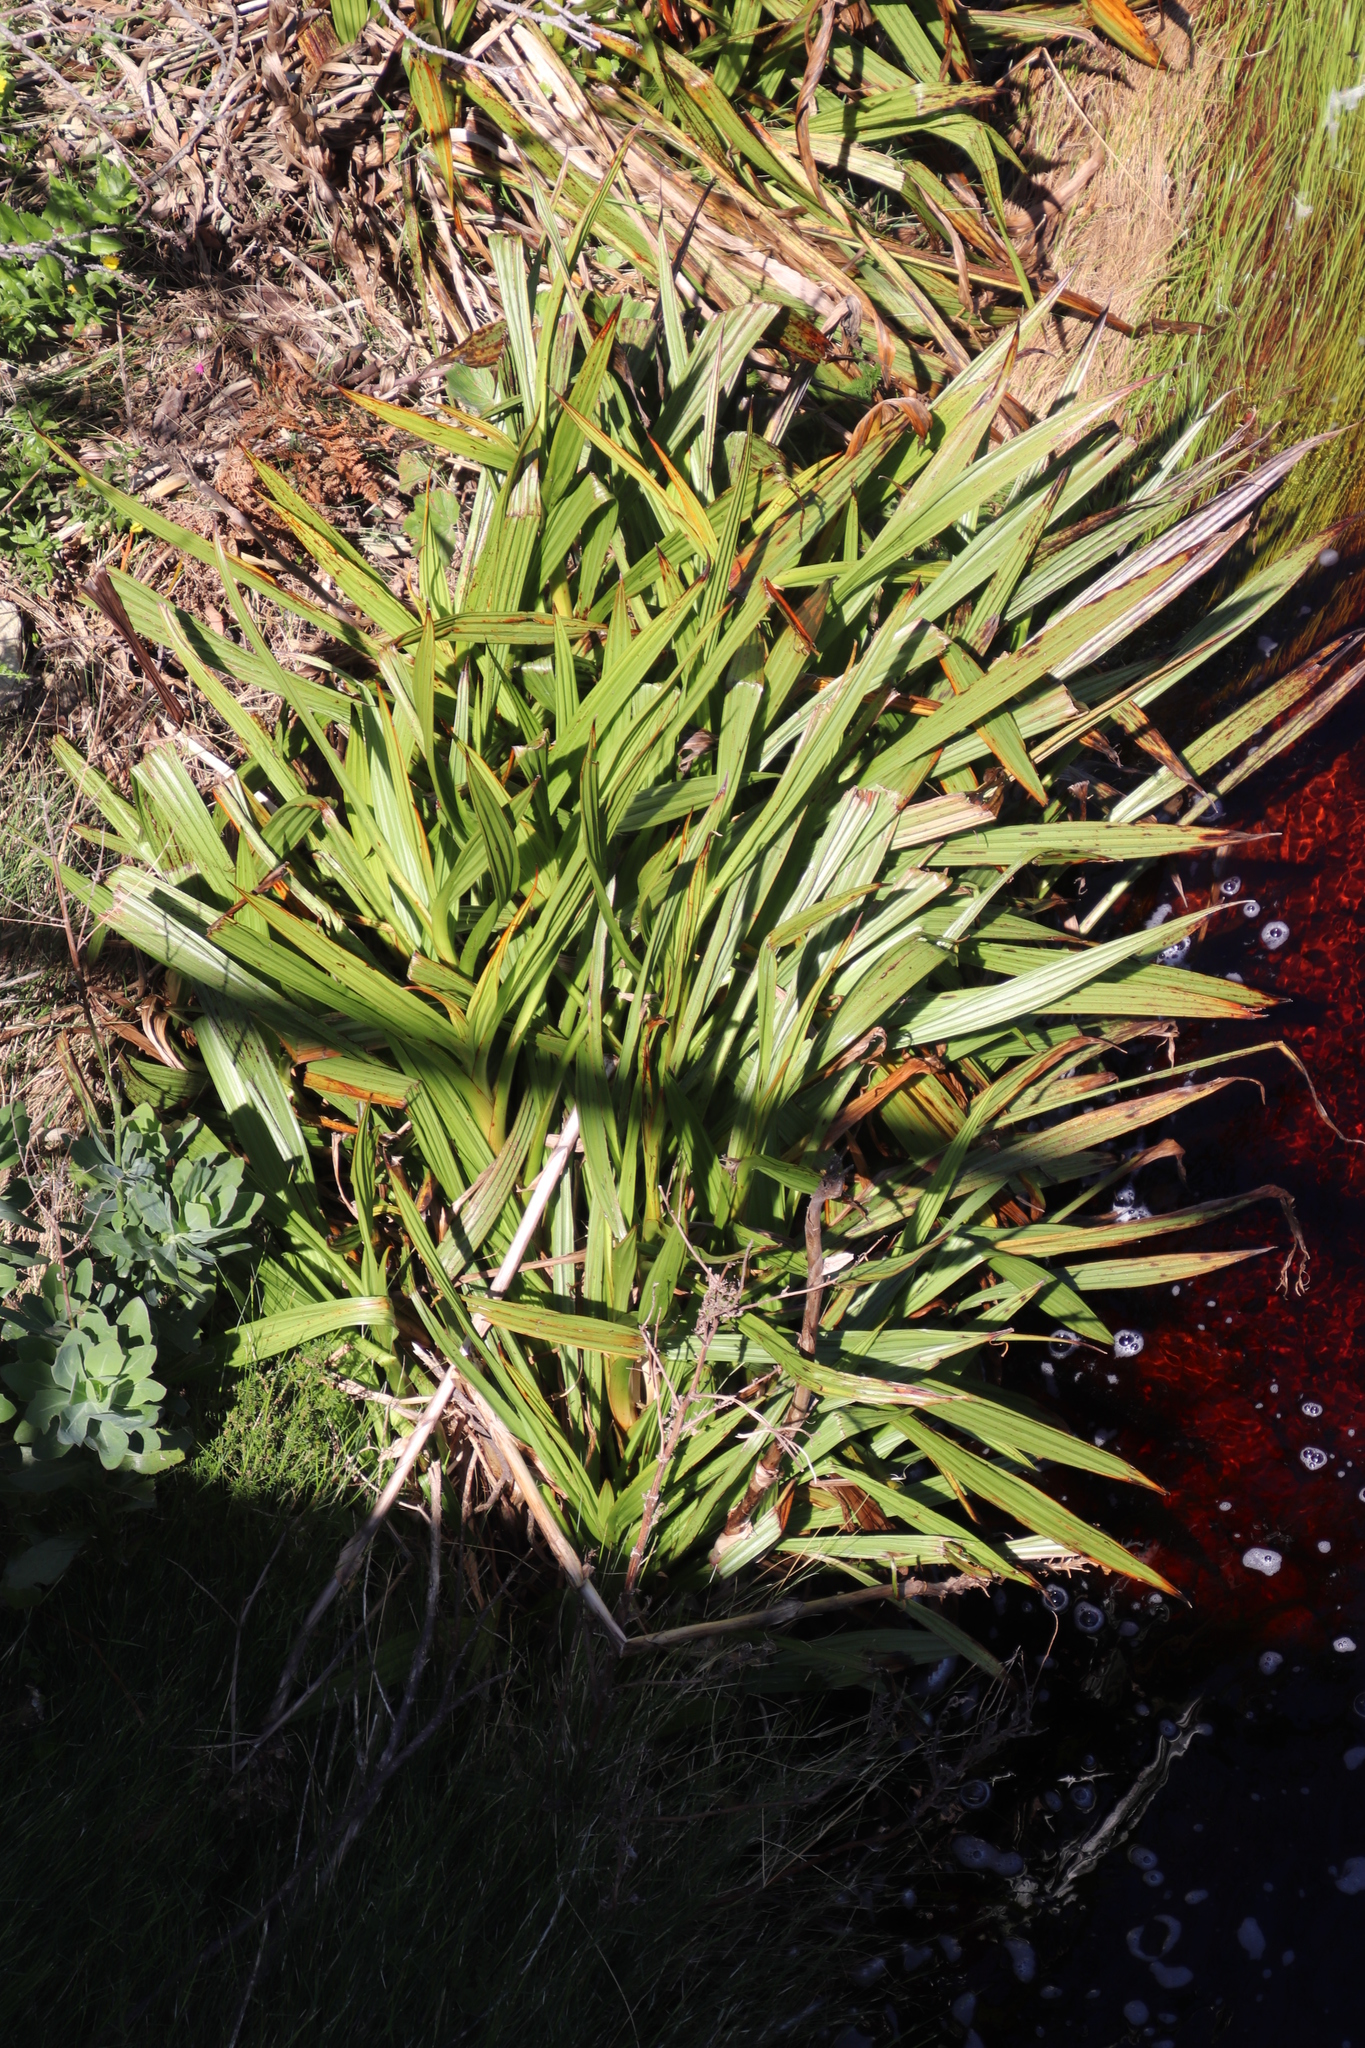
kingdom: Plantae
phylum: Tracheophyta
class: Liliopsida
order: Commelinales
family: Haemodoraceae
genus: Wachendorfia
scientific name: Wachendorfia thyrsiflora
